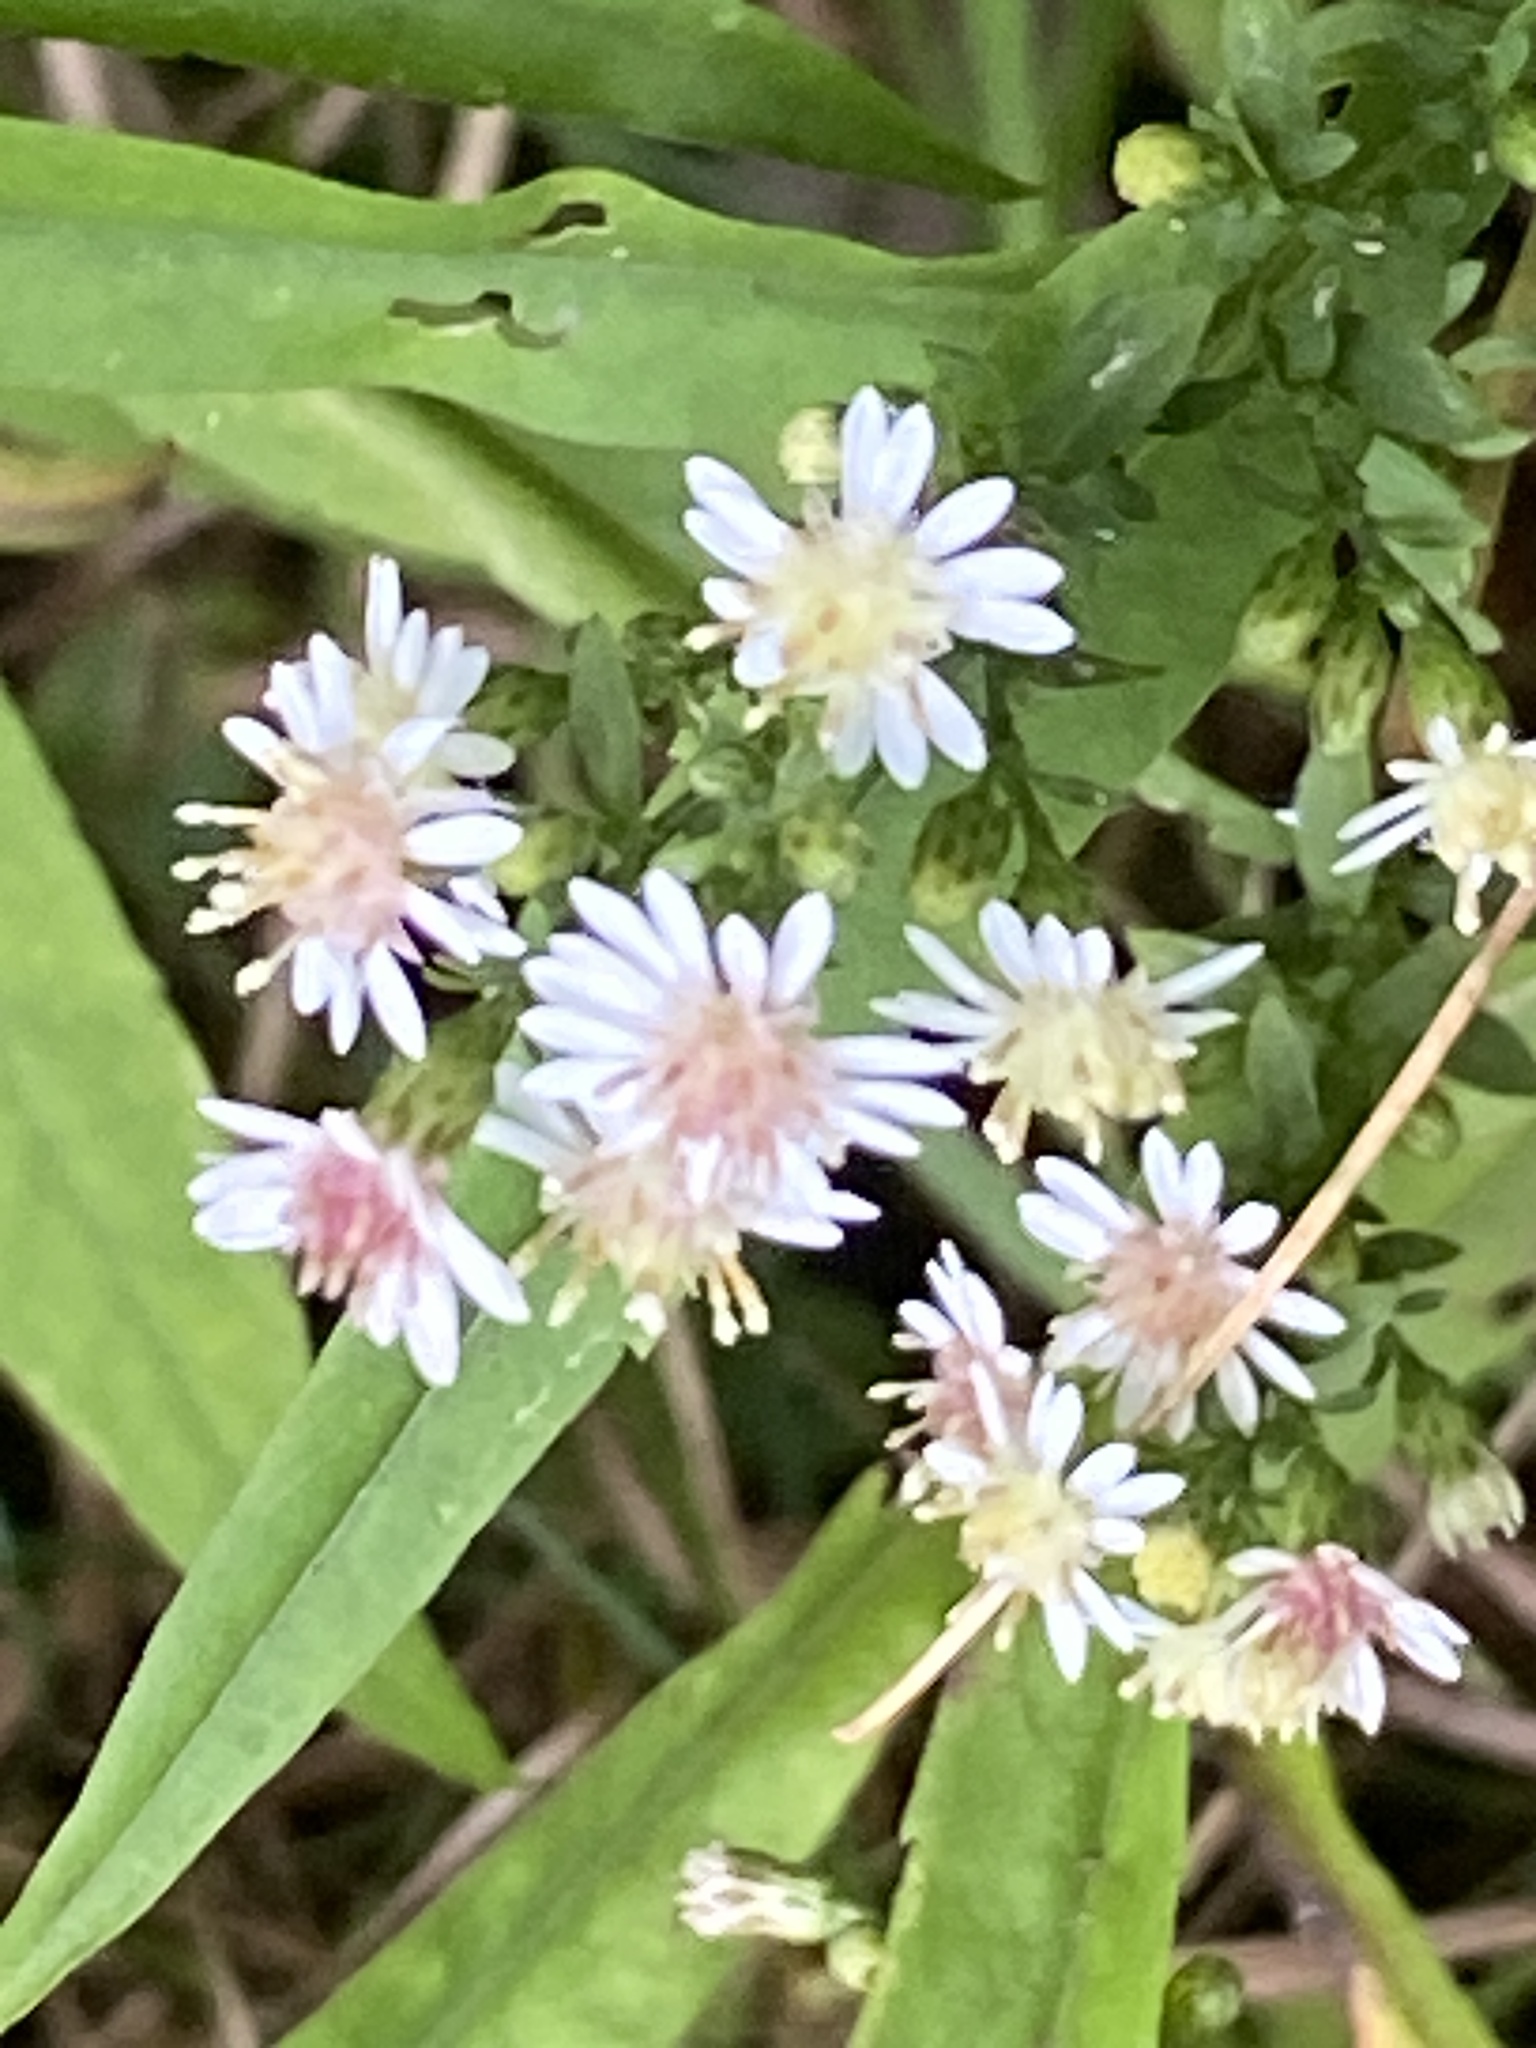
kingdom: Plantae
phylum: Tracheophyta
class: Magnoliopsida
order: Asterales
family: Asteraceae
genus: Symphyotrichum
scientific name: Symphyotrichum lateriflorum
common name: Calico aster
